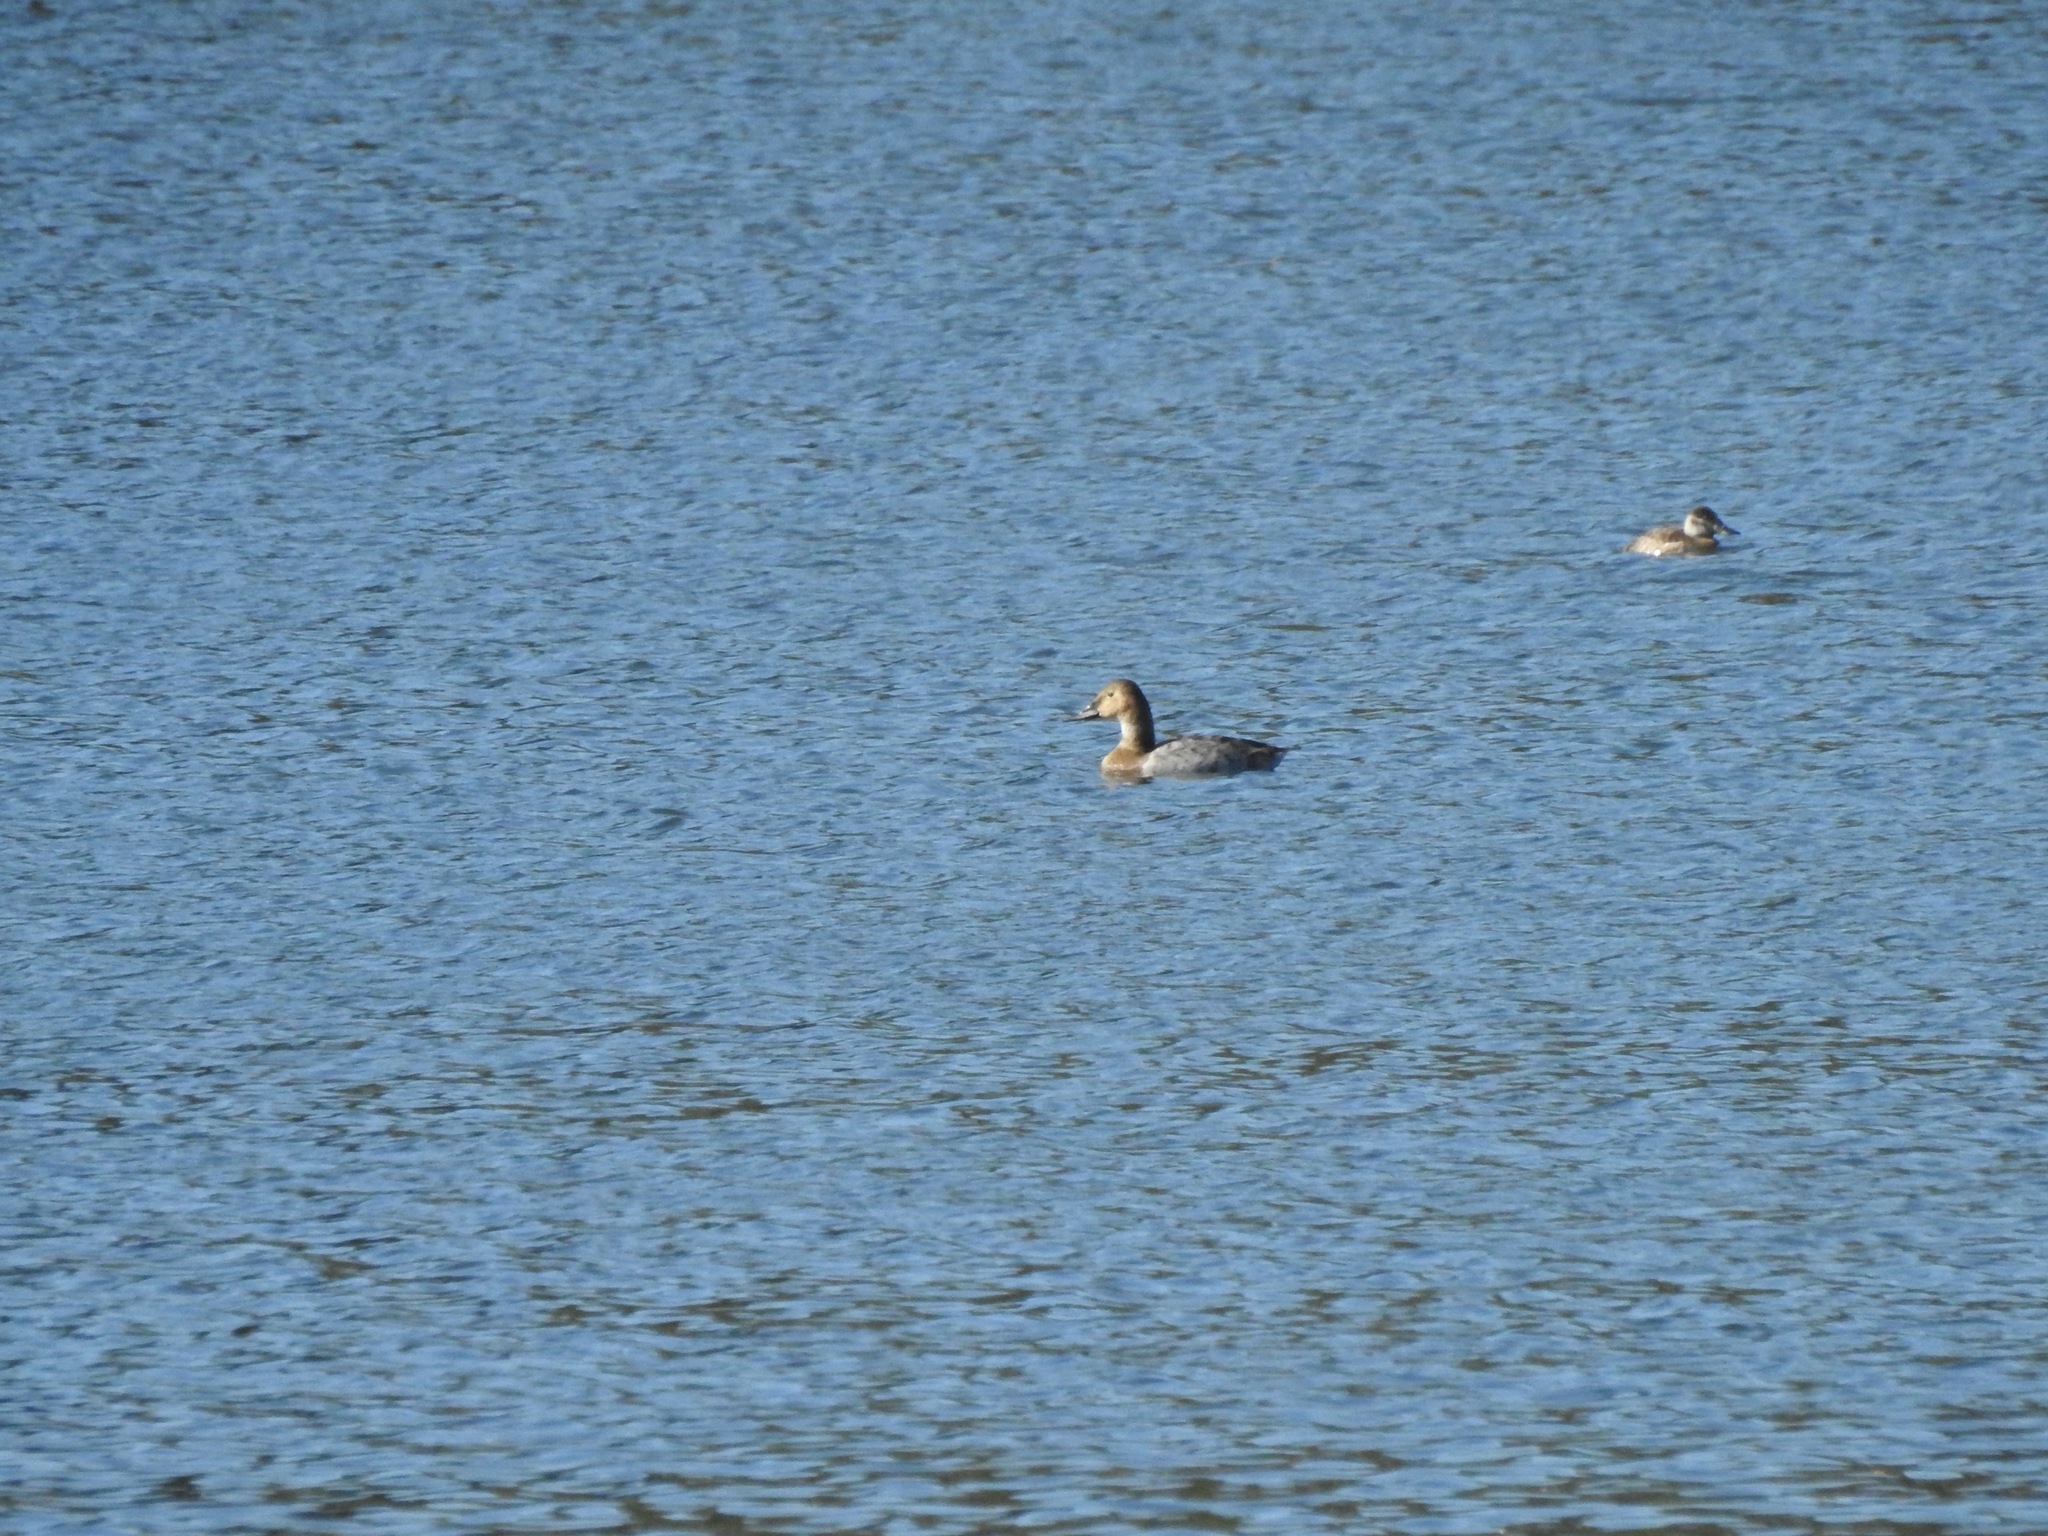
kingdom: Animalia
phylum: Chordata
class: Aves
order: Anseriformes
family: Anatidae
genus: Aythya
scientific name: Aythya valisineria
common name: Canvasback
